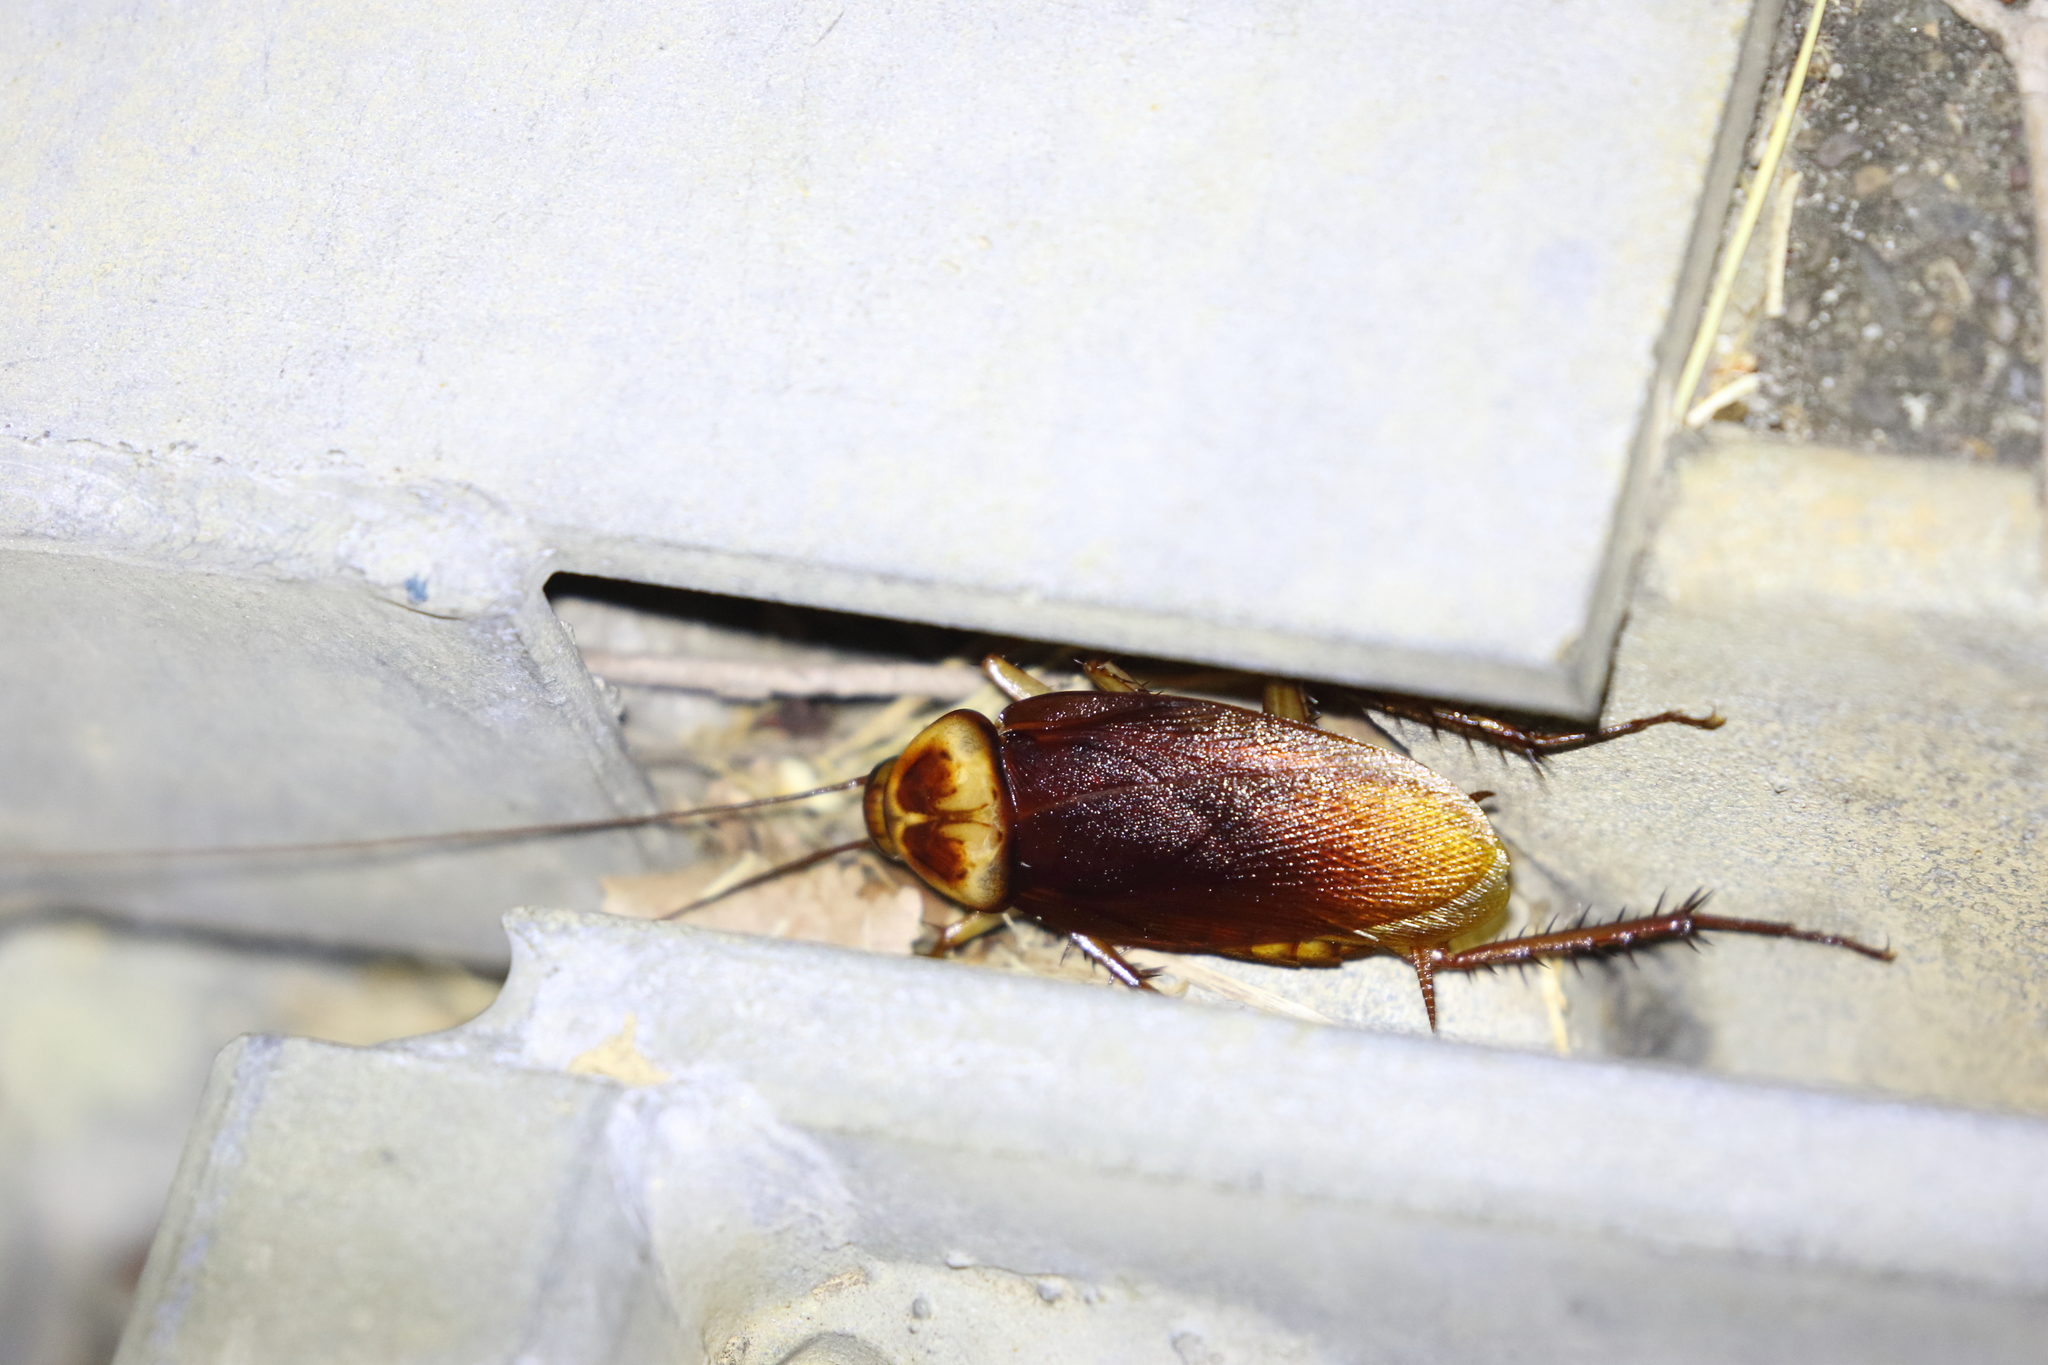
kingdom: Animalia
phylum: Arthropoda
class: Insecta
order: Blattodea
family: Blattidae
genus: Periplaneta
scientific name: Periplaneta americana
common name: American cockroach
